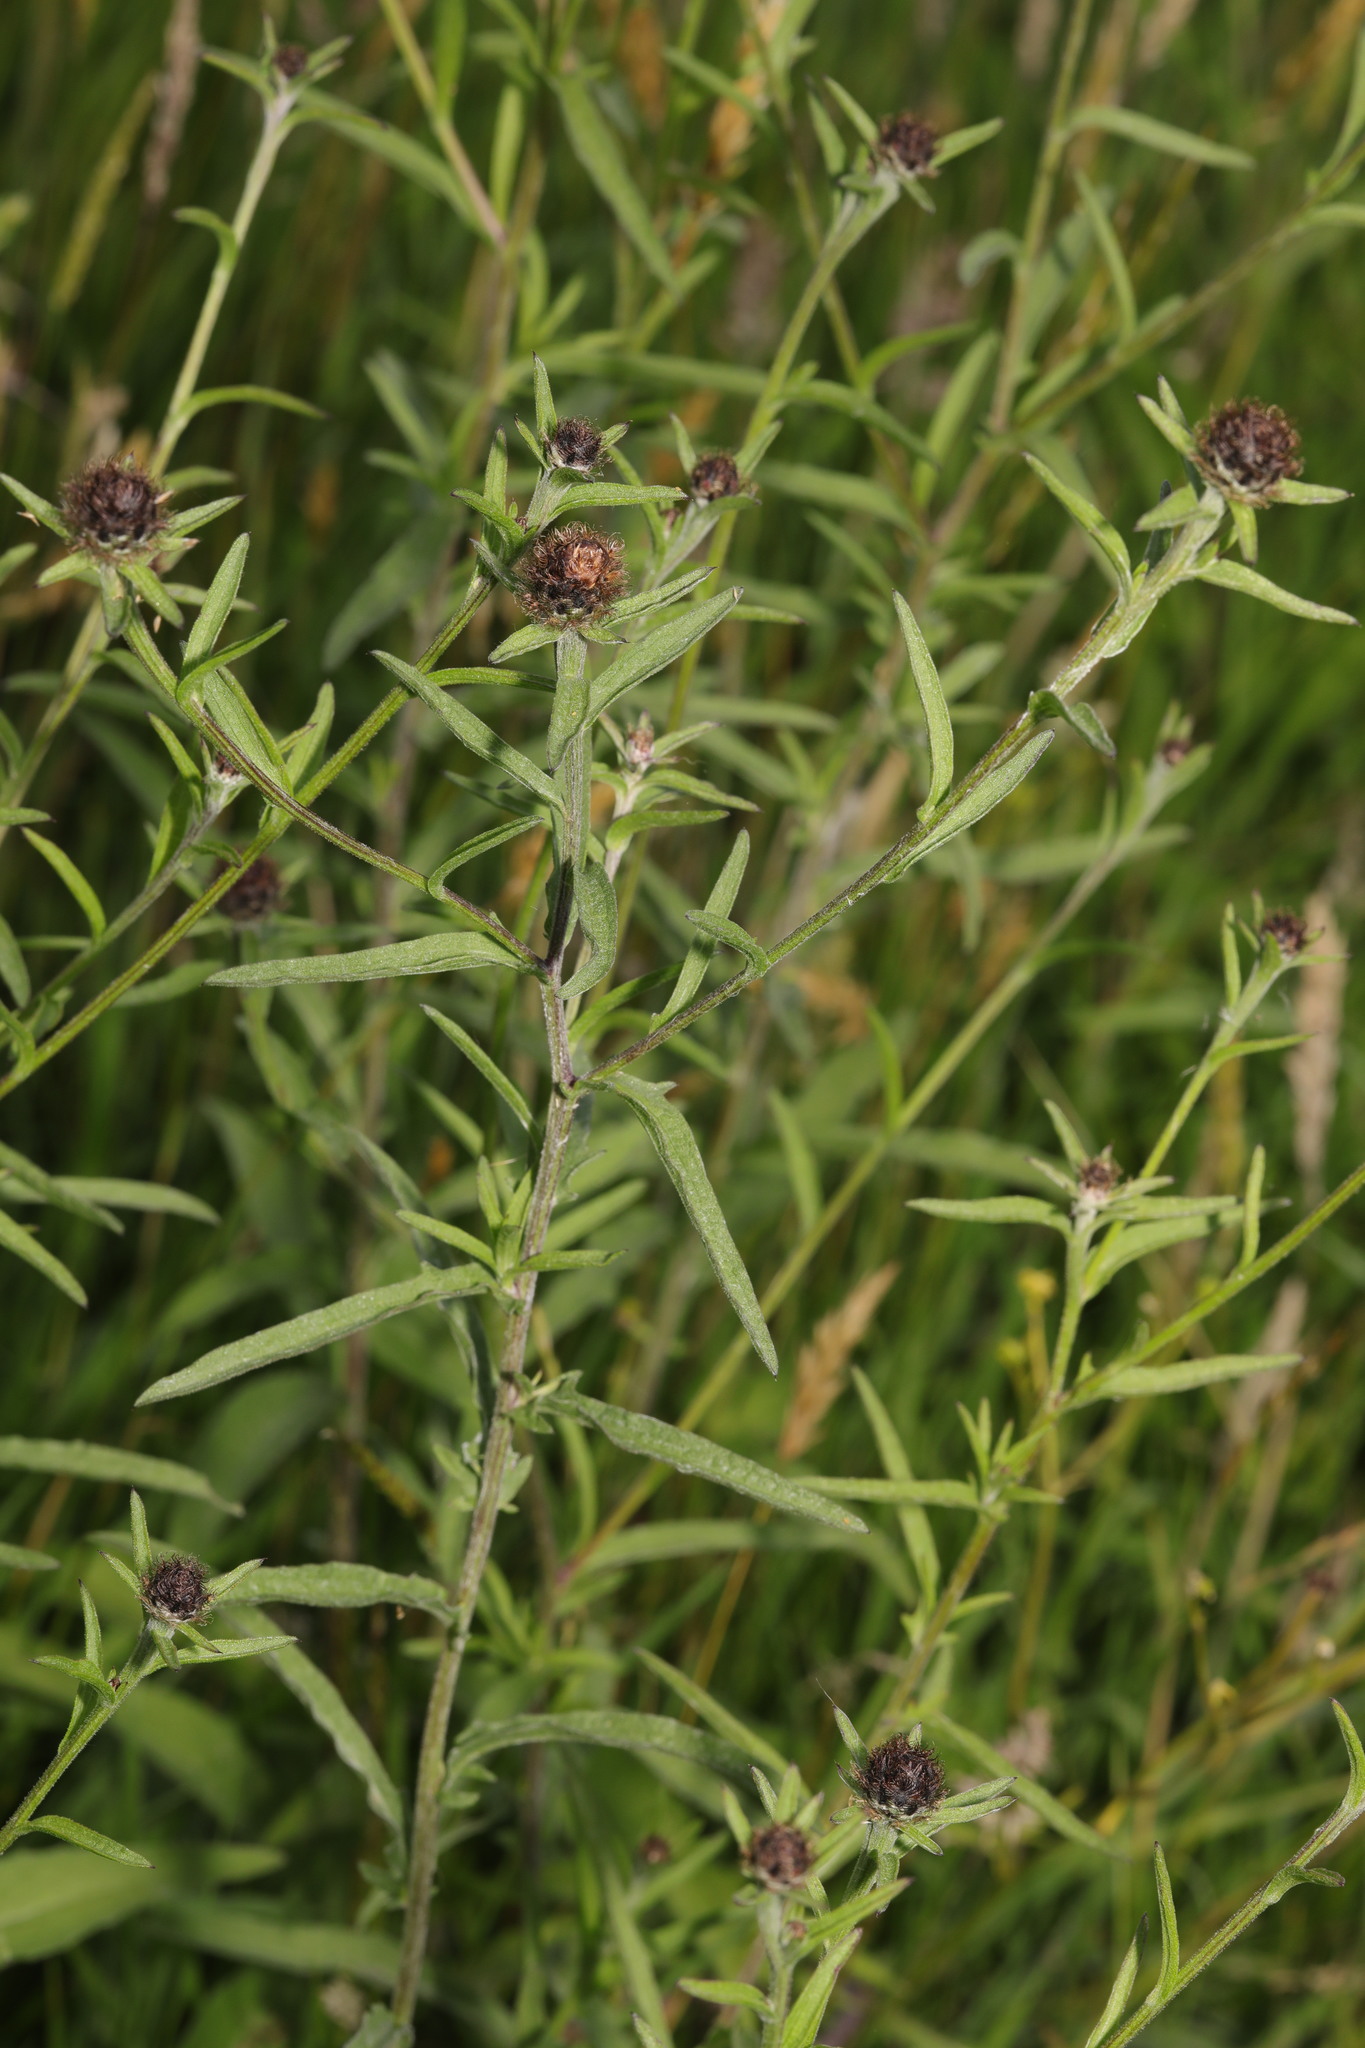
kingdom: Plantae
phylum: Tracheophyta
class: Magnoliopsida
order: Asterales
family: Asteraceae
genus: Centaurea
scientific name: Centaurea nigra
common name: Lesser knapweed
